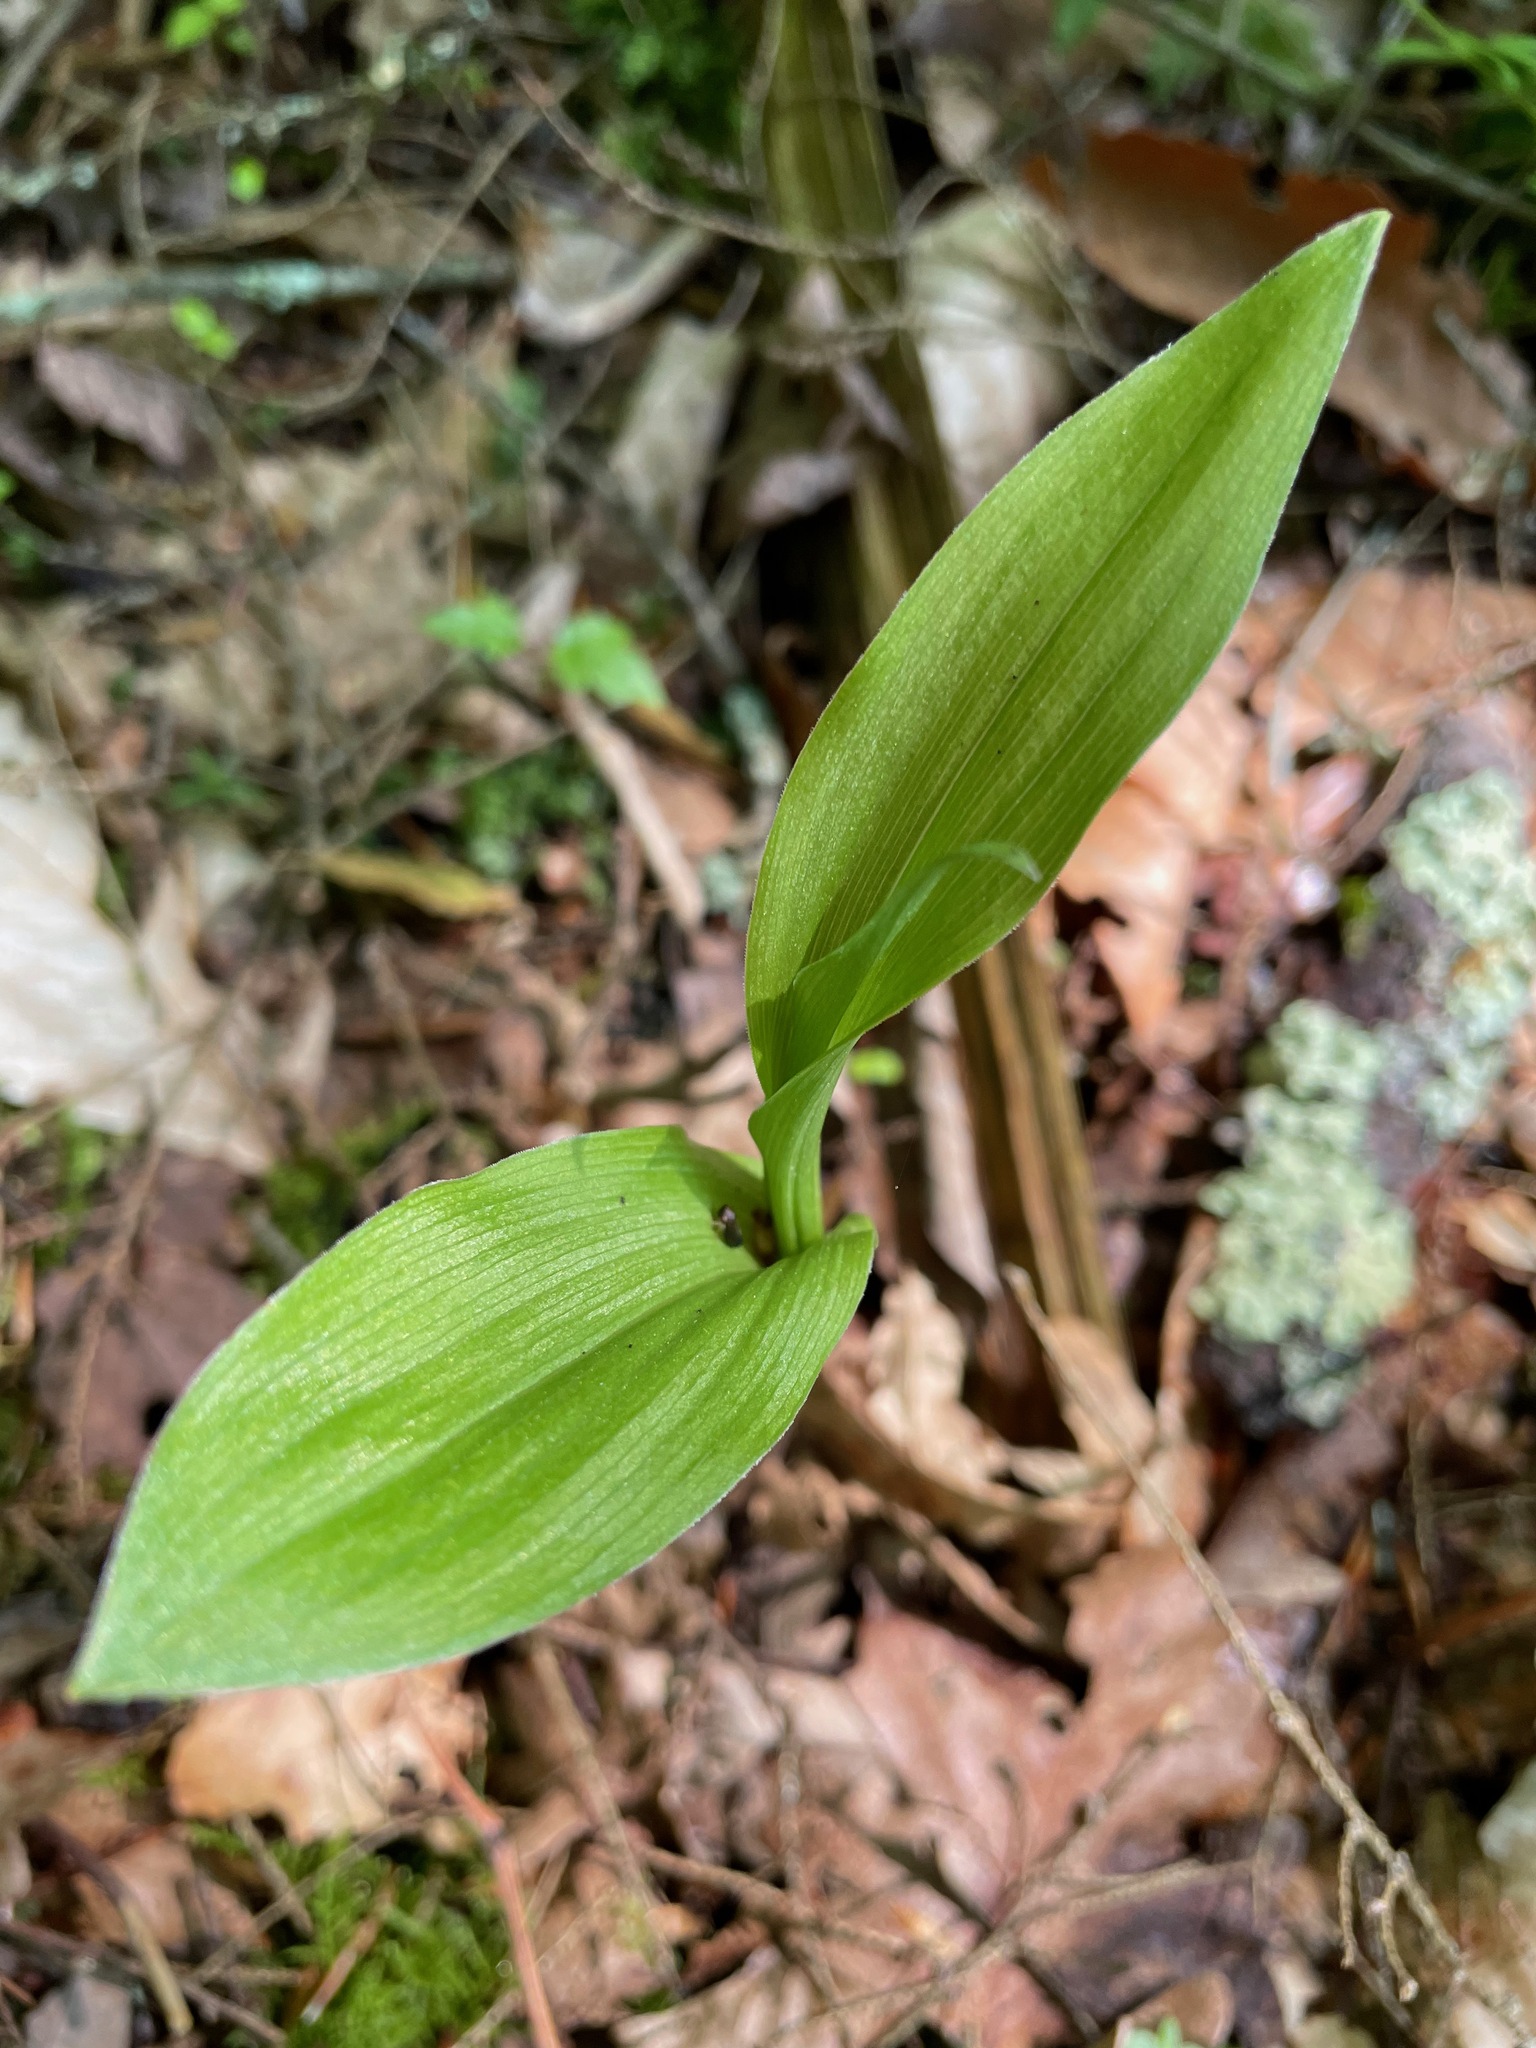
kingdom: Plantae
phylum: Tracheophyta
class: Liliopsida
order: Asparagales
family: Orchidaceae
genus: Epipactis
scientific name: Epipactis helleborine
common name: Broad-leaved helleborine
